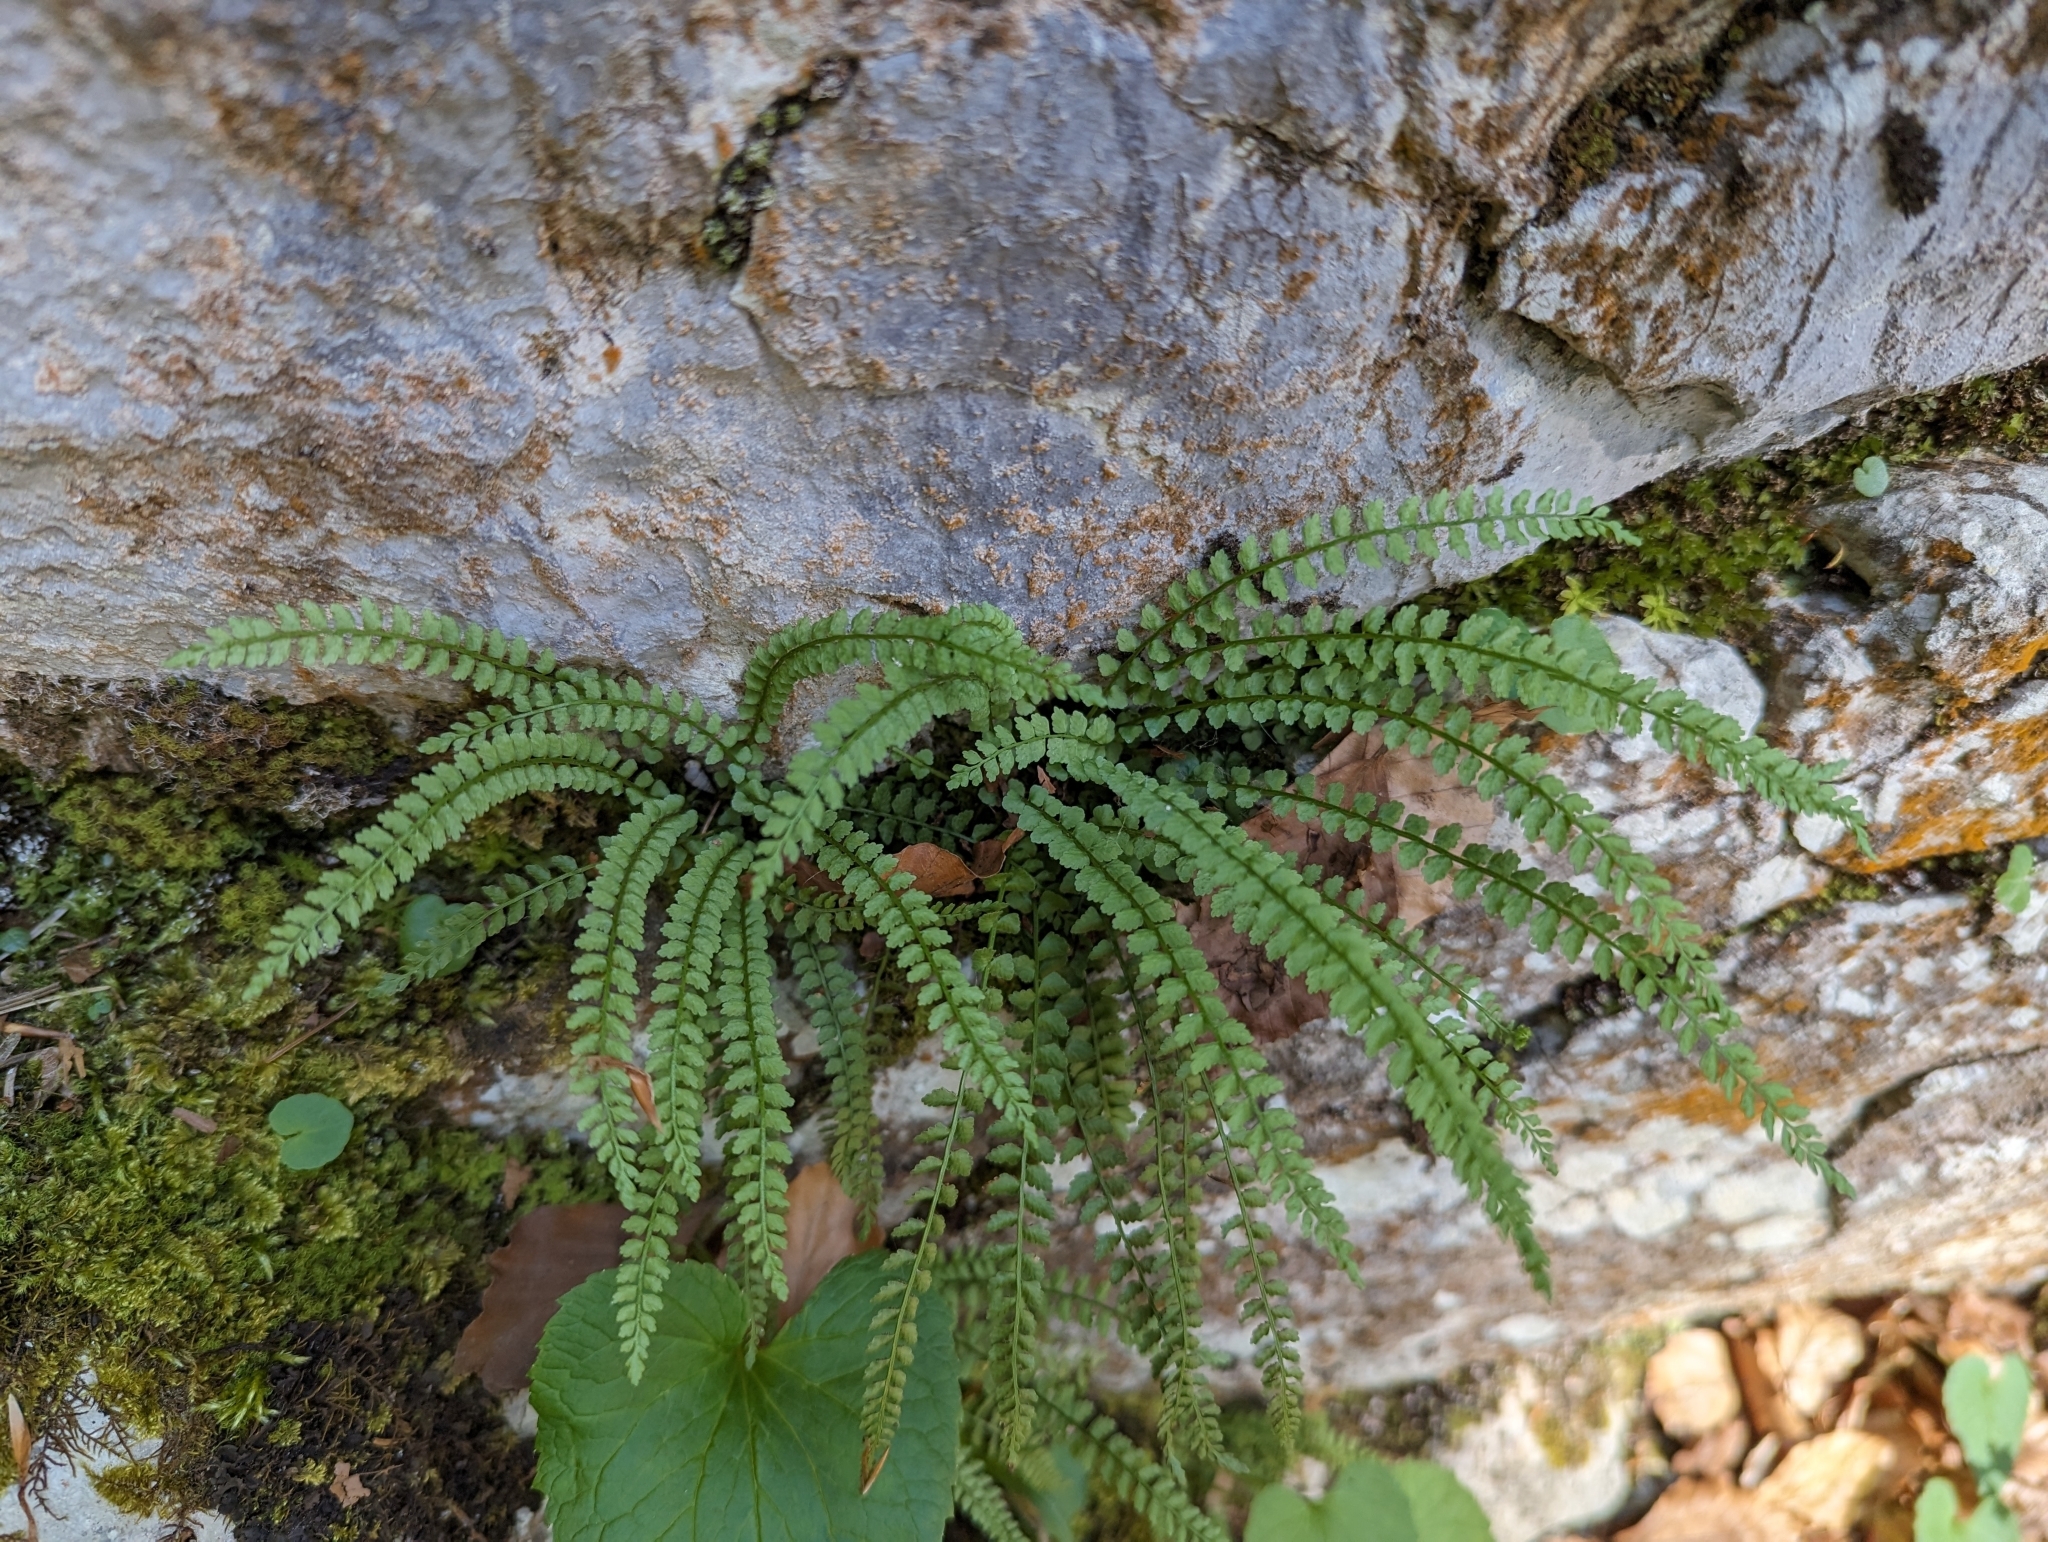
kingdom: Plantae
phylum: Tracheophyta
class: Polypodiopsida
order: Polypodiales
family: Aspleniaceae
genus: Asplenium
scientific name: Asplenium viride
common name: Green spleenwort
